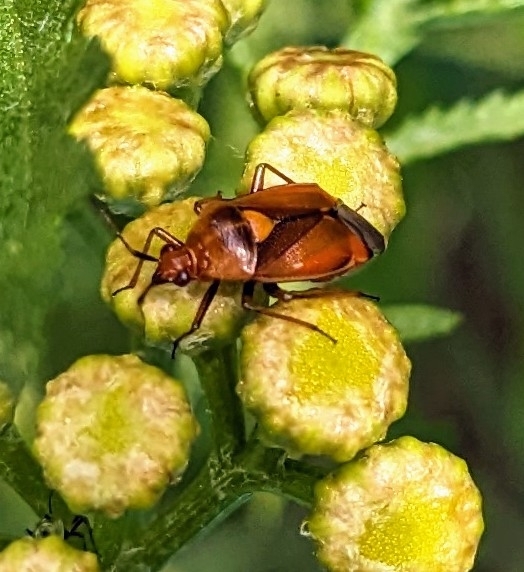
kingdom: Animalia
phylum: Arthropoda
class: Insecta
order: Hemiptera
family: Miridae
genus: Deraeocoris
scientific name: Deraeocoris ruber
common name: Plant bug
